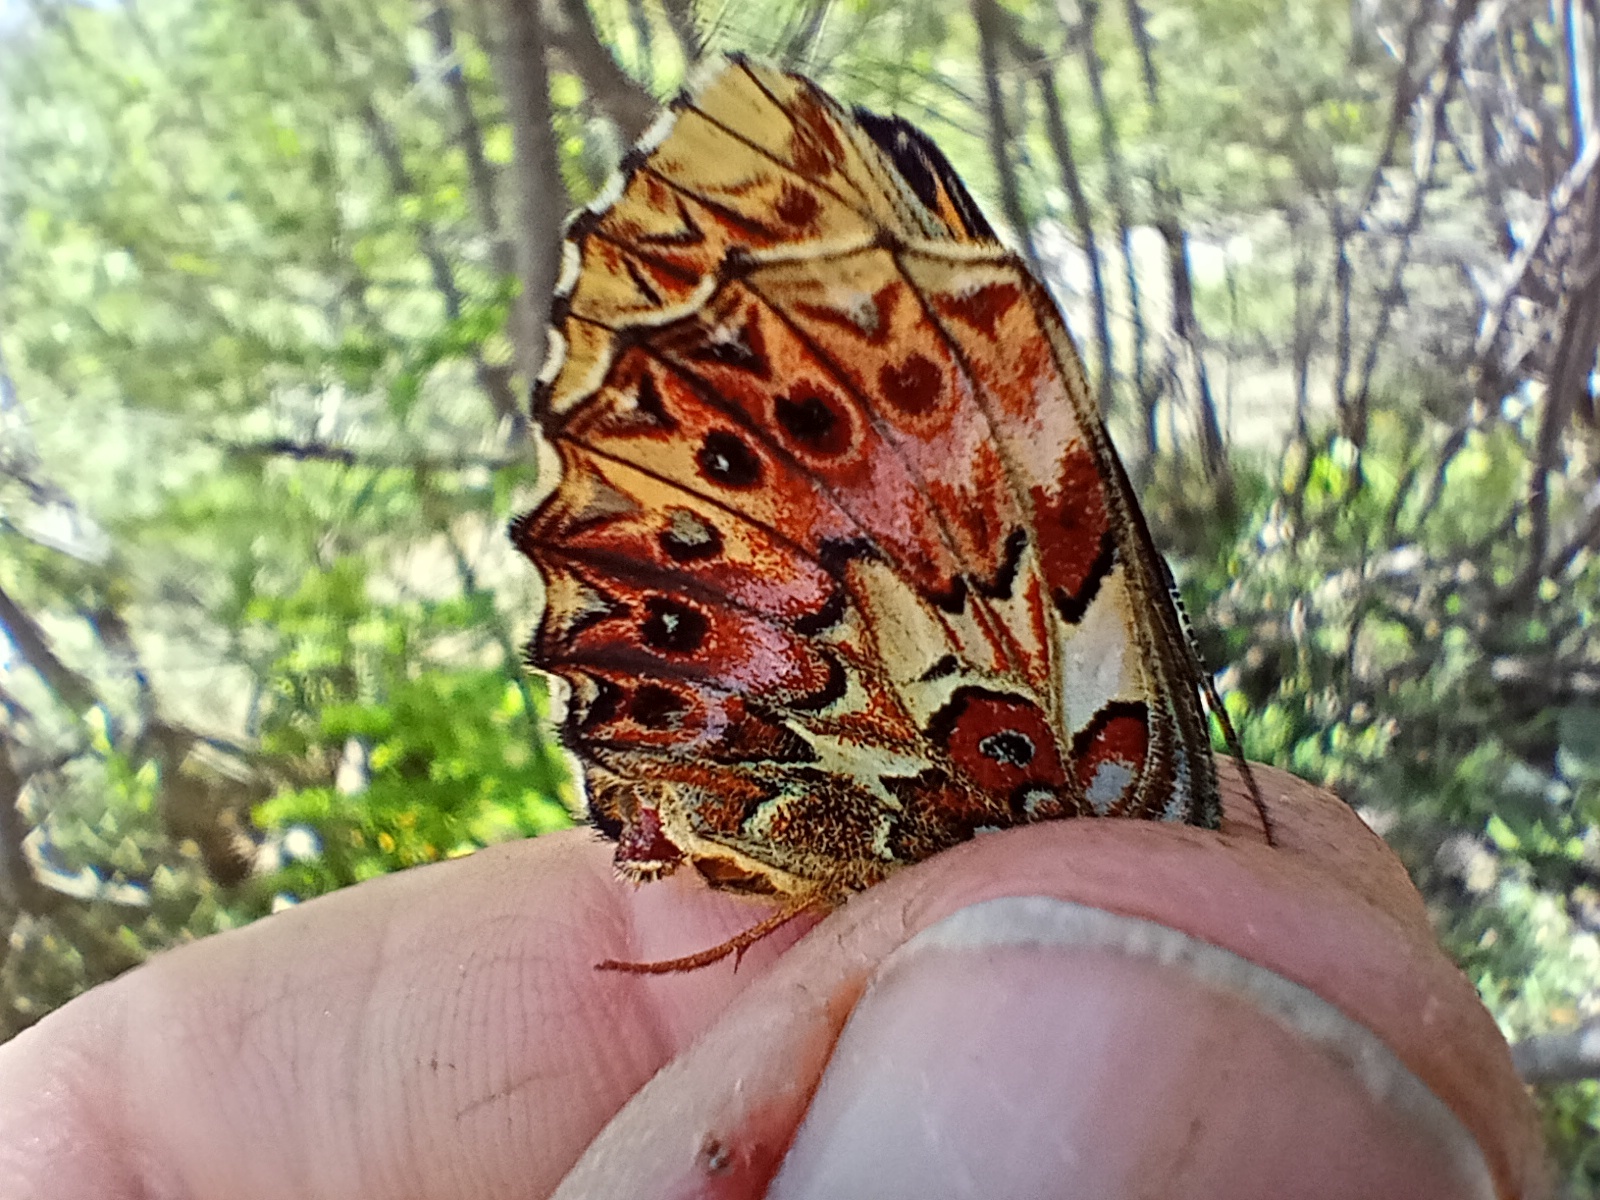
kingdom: Animalia
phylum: Arthropoda
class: Insecta
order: Lepidoptera
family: Nymphalidae
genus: Boloria
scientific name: Boloria titania
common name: Titania's fritillary
